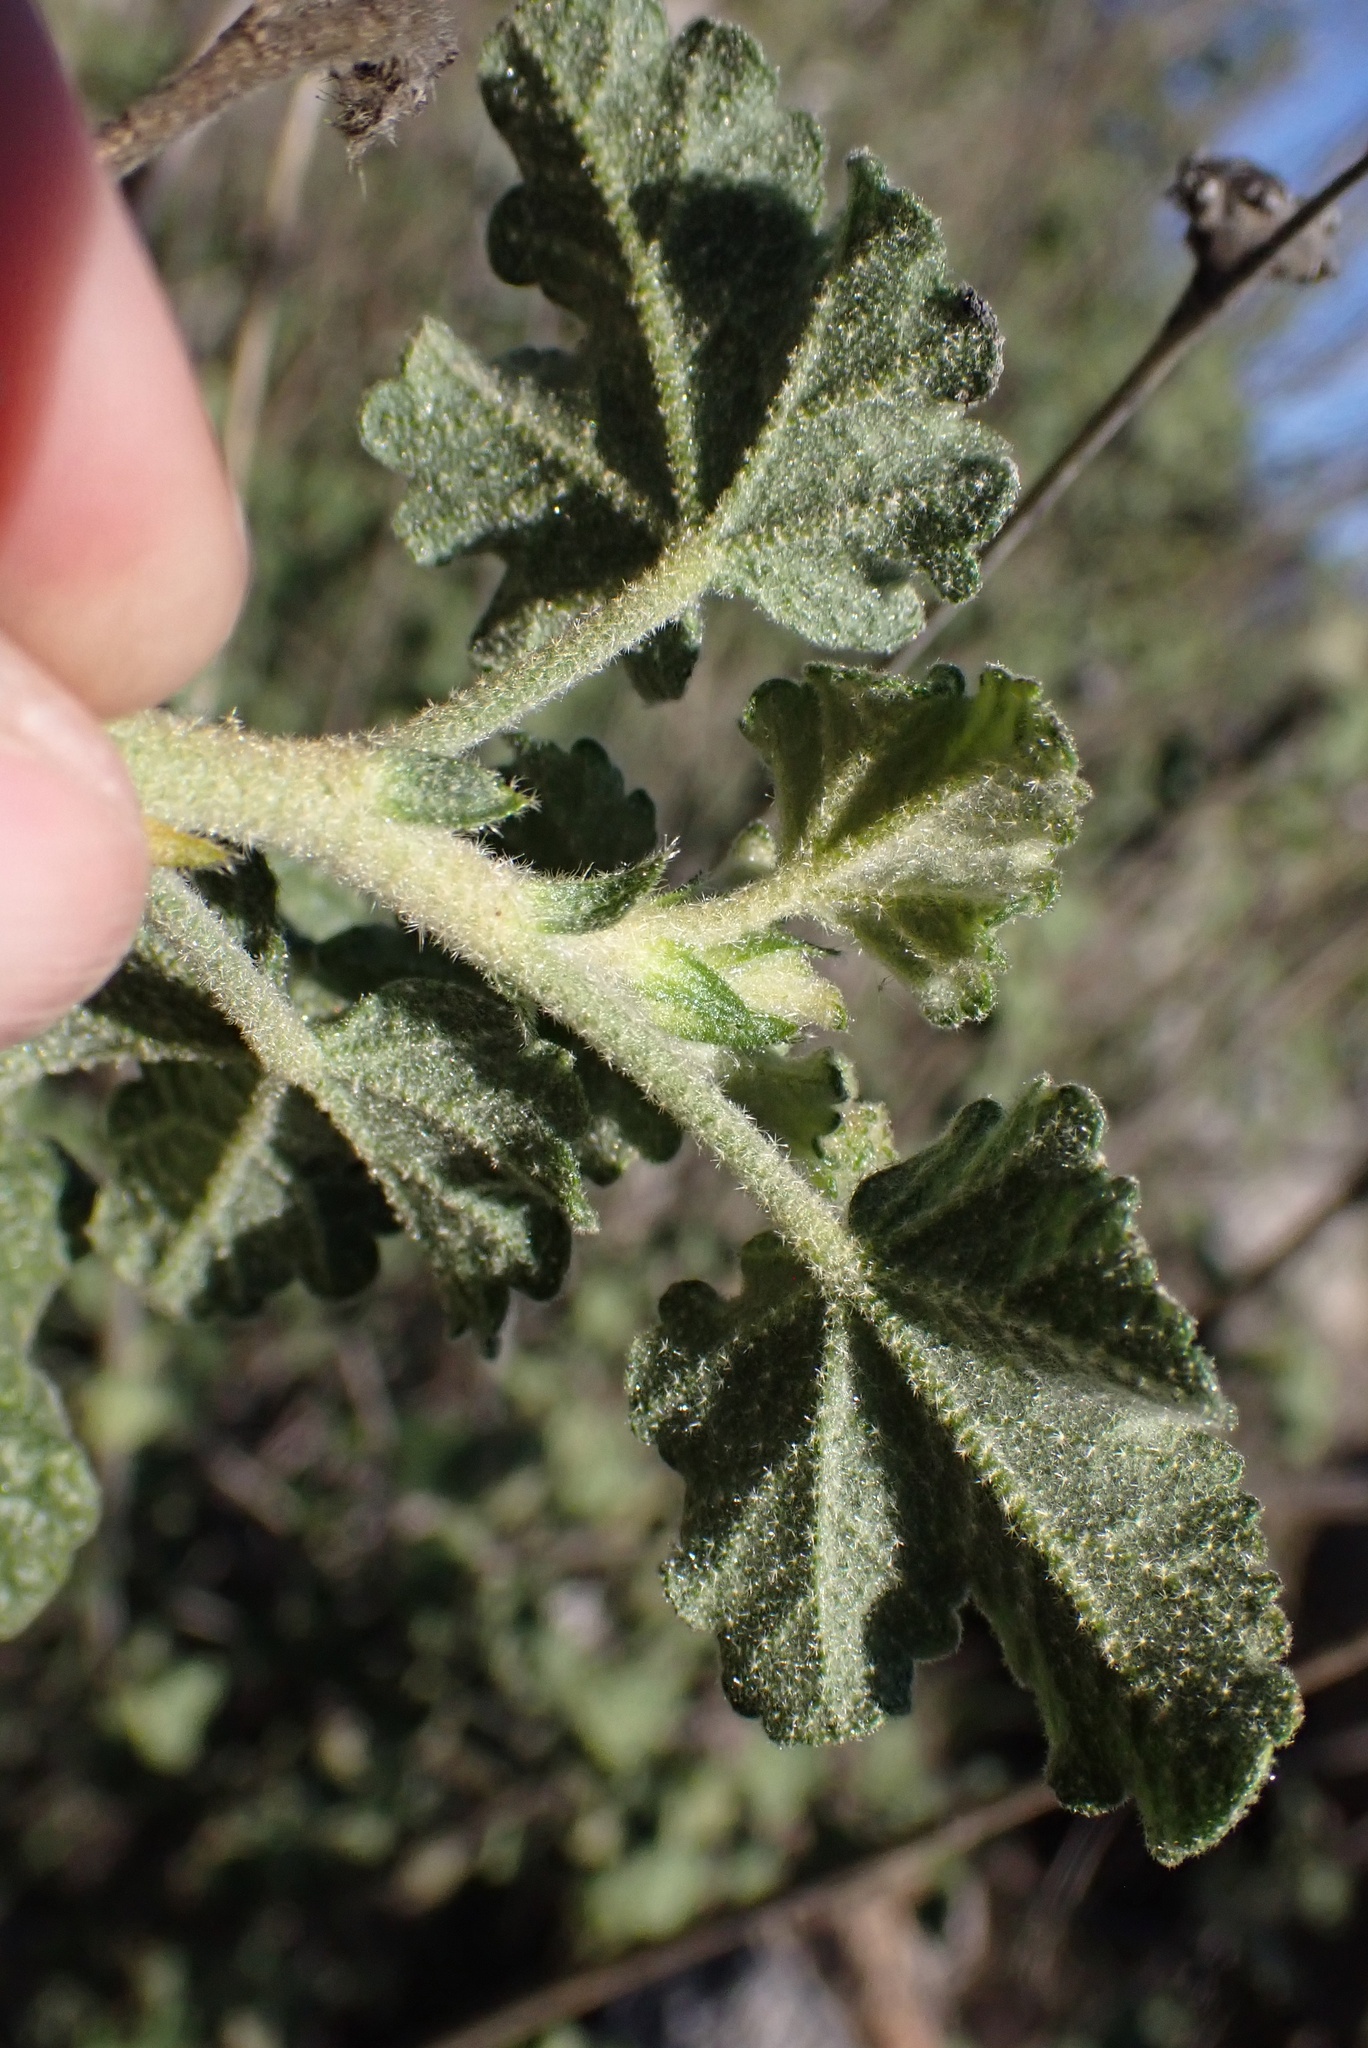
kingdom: Plantae
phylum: Tracheophyta
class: Magnoliopsida
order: Malvales
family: Malvaceae
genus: Malacothamnus
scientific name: Malacothamnus densiflorus
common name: Yellow-stem bush-mallow
